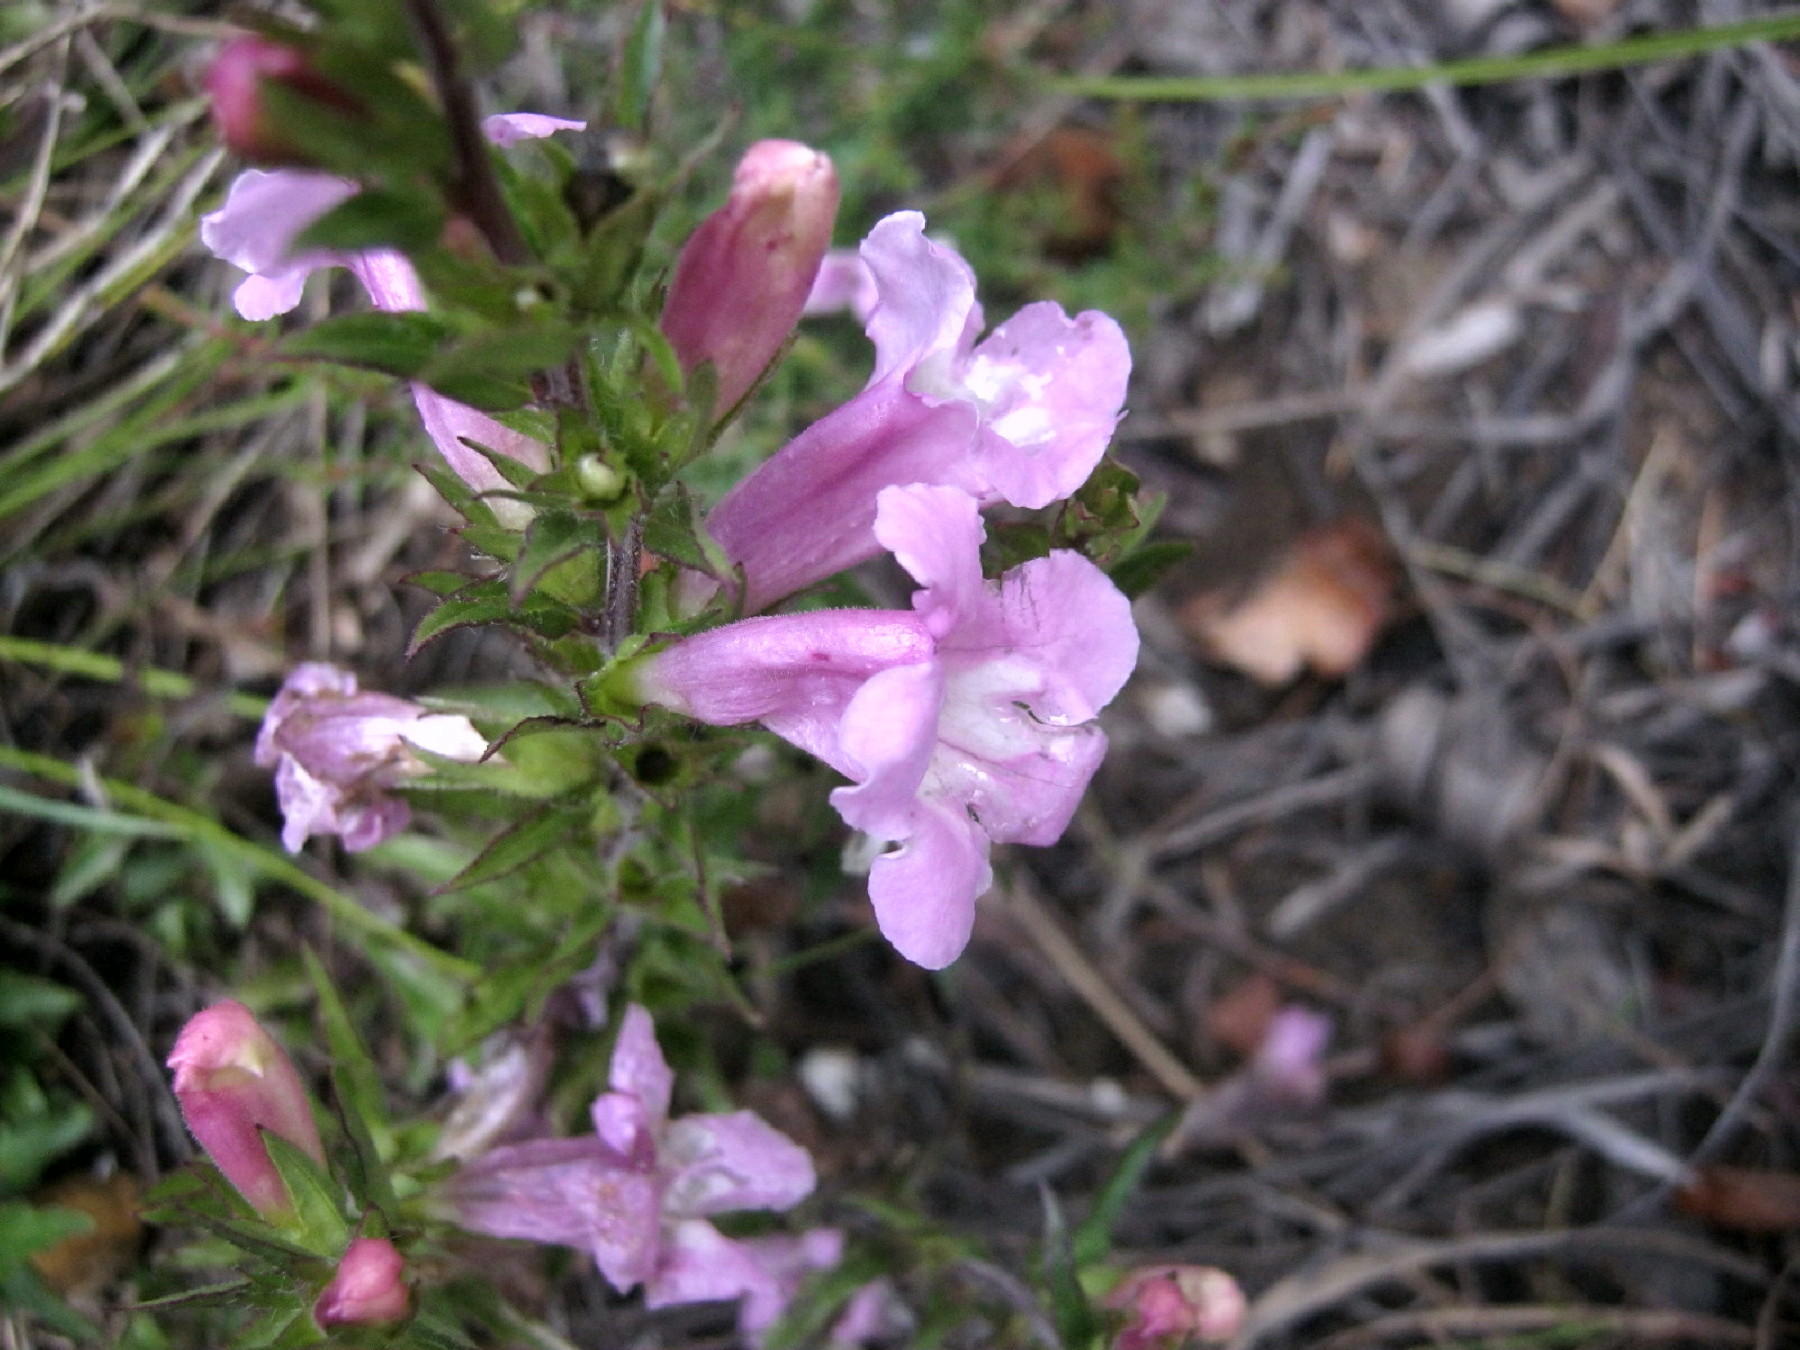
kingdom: Plantae
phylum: Tracheophyta
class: Magnoliopsida
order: Lamiales
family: Orobanchaceae
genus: Graderia
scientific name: Graderia scabra
